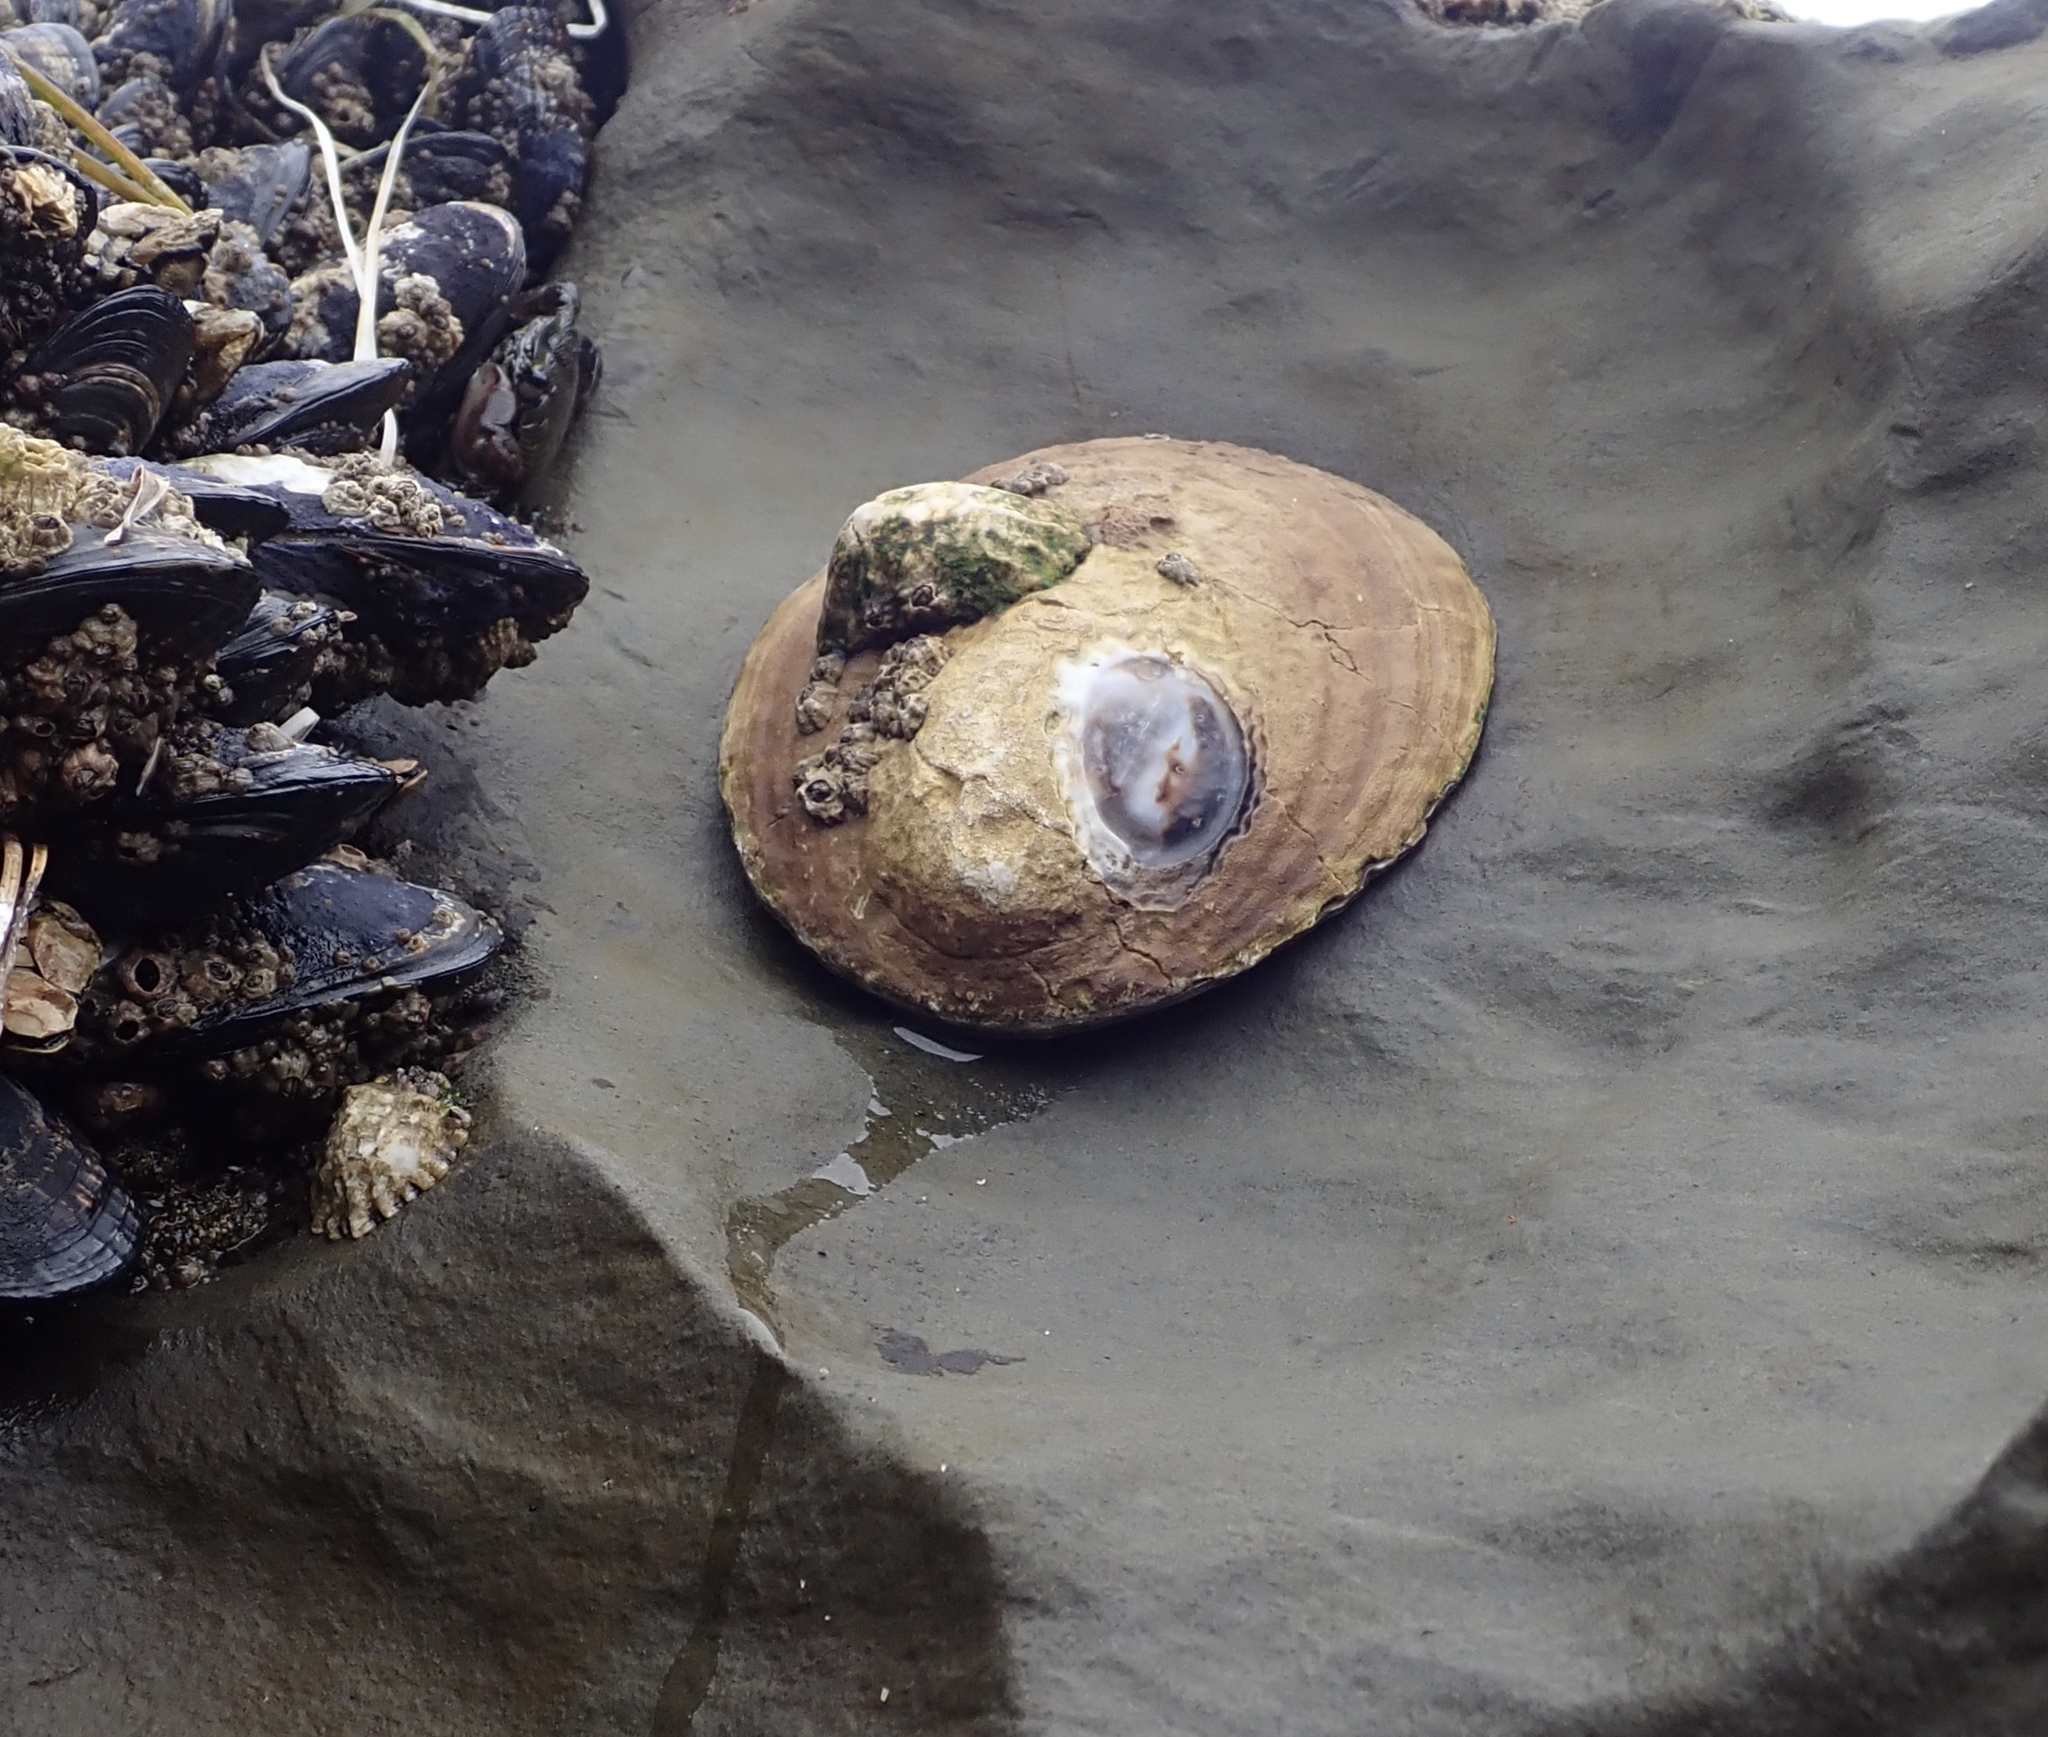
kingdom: Animalia
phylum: Mollusca
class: Gastropoda
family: Lottiidae
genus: Lottia
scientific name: Lottia gigantea
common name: Owl limpet
